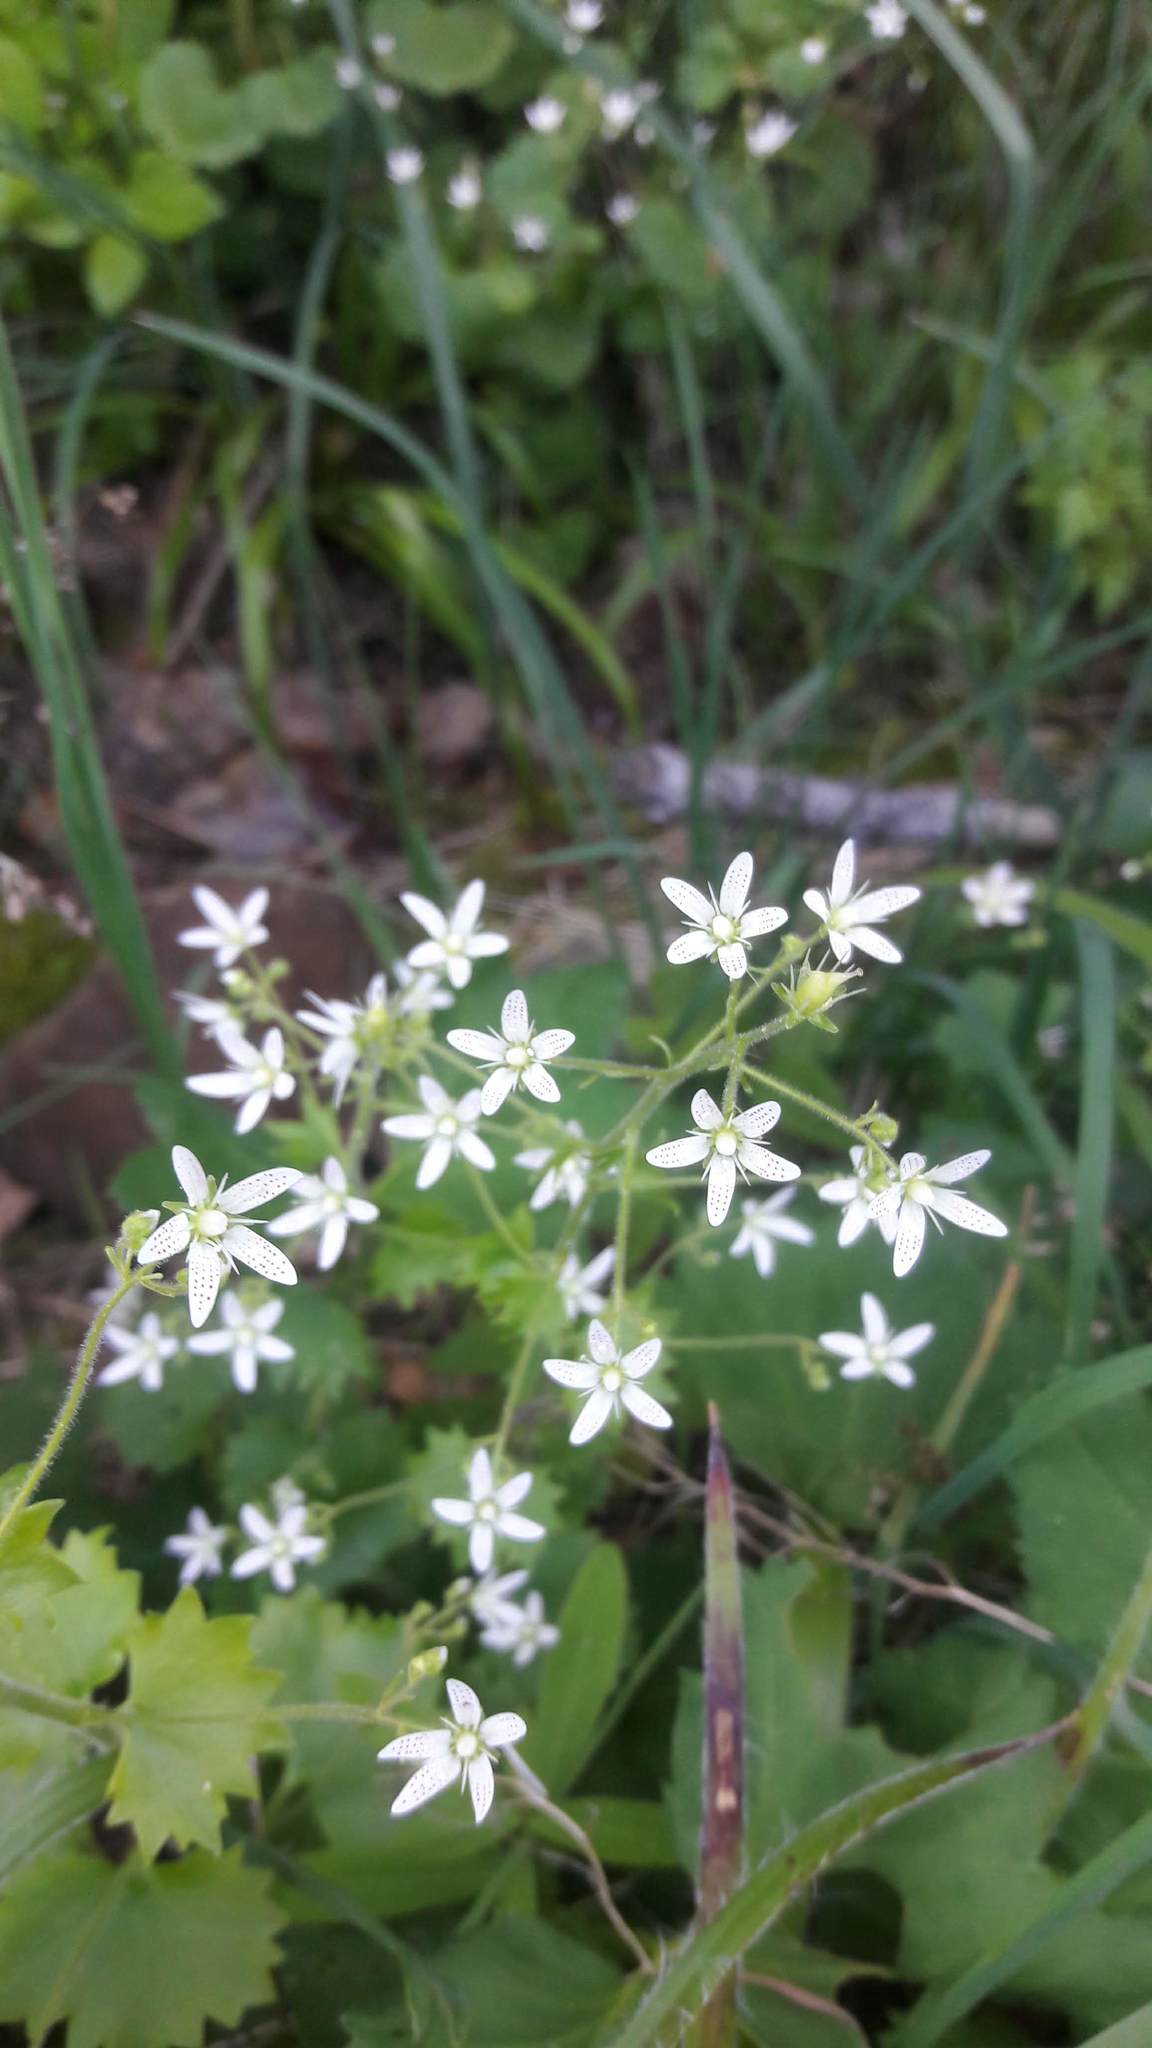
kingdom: Plantae
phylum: Tracheophyta
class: Magnoliopsida
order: Saxifragales
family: Saxifragaceae
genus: Saxifraga
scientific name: Saxifraga rotundifolia
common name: Round-leaved saxifrage
